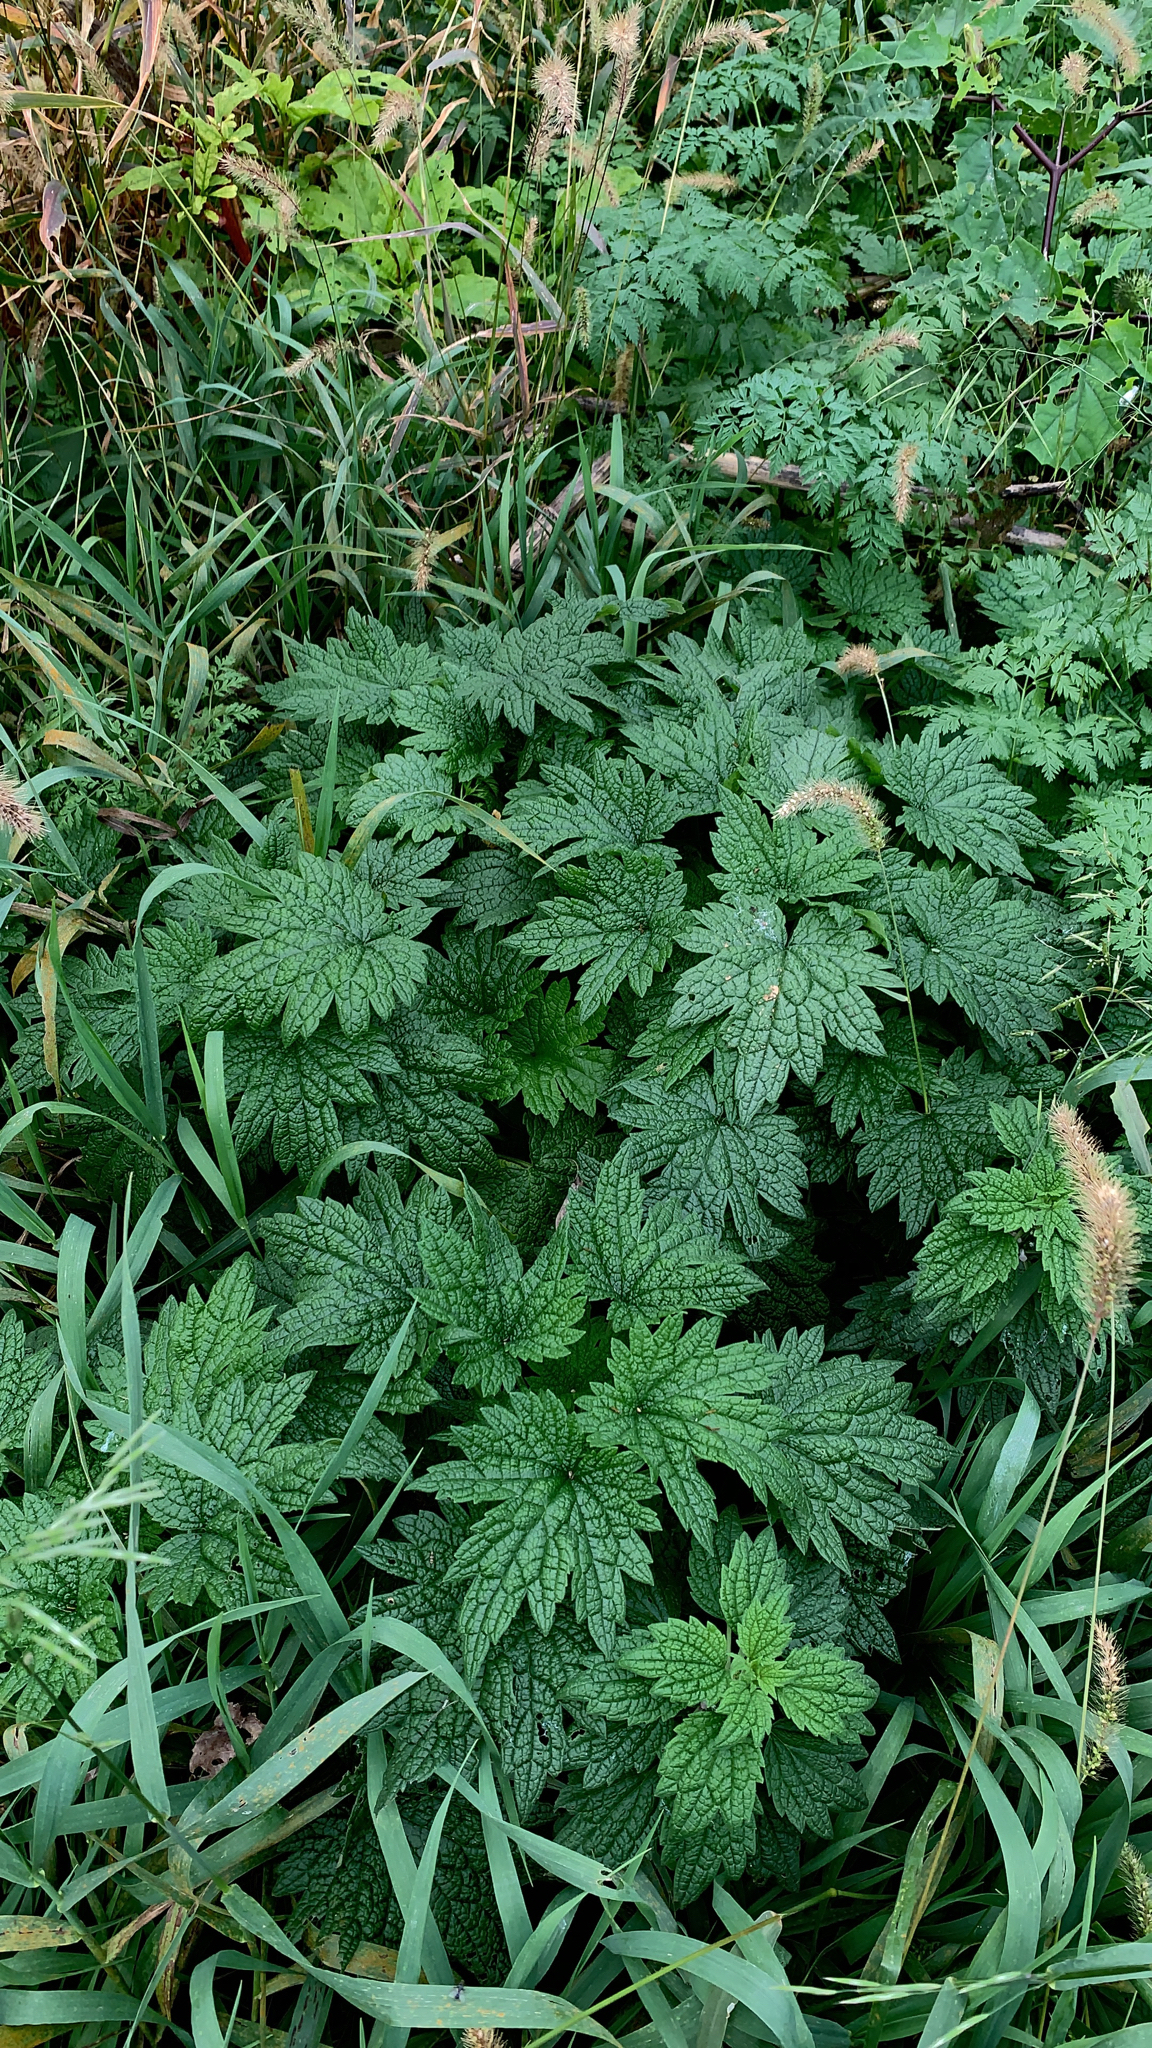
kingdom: Plantae
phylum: Tracheophyta
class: Magnoliopsida
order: Lamiales
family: Lamiaceae
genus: Leonurus
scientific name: Leonurus cardiaca
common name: Motherwort
